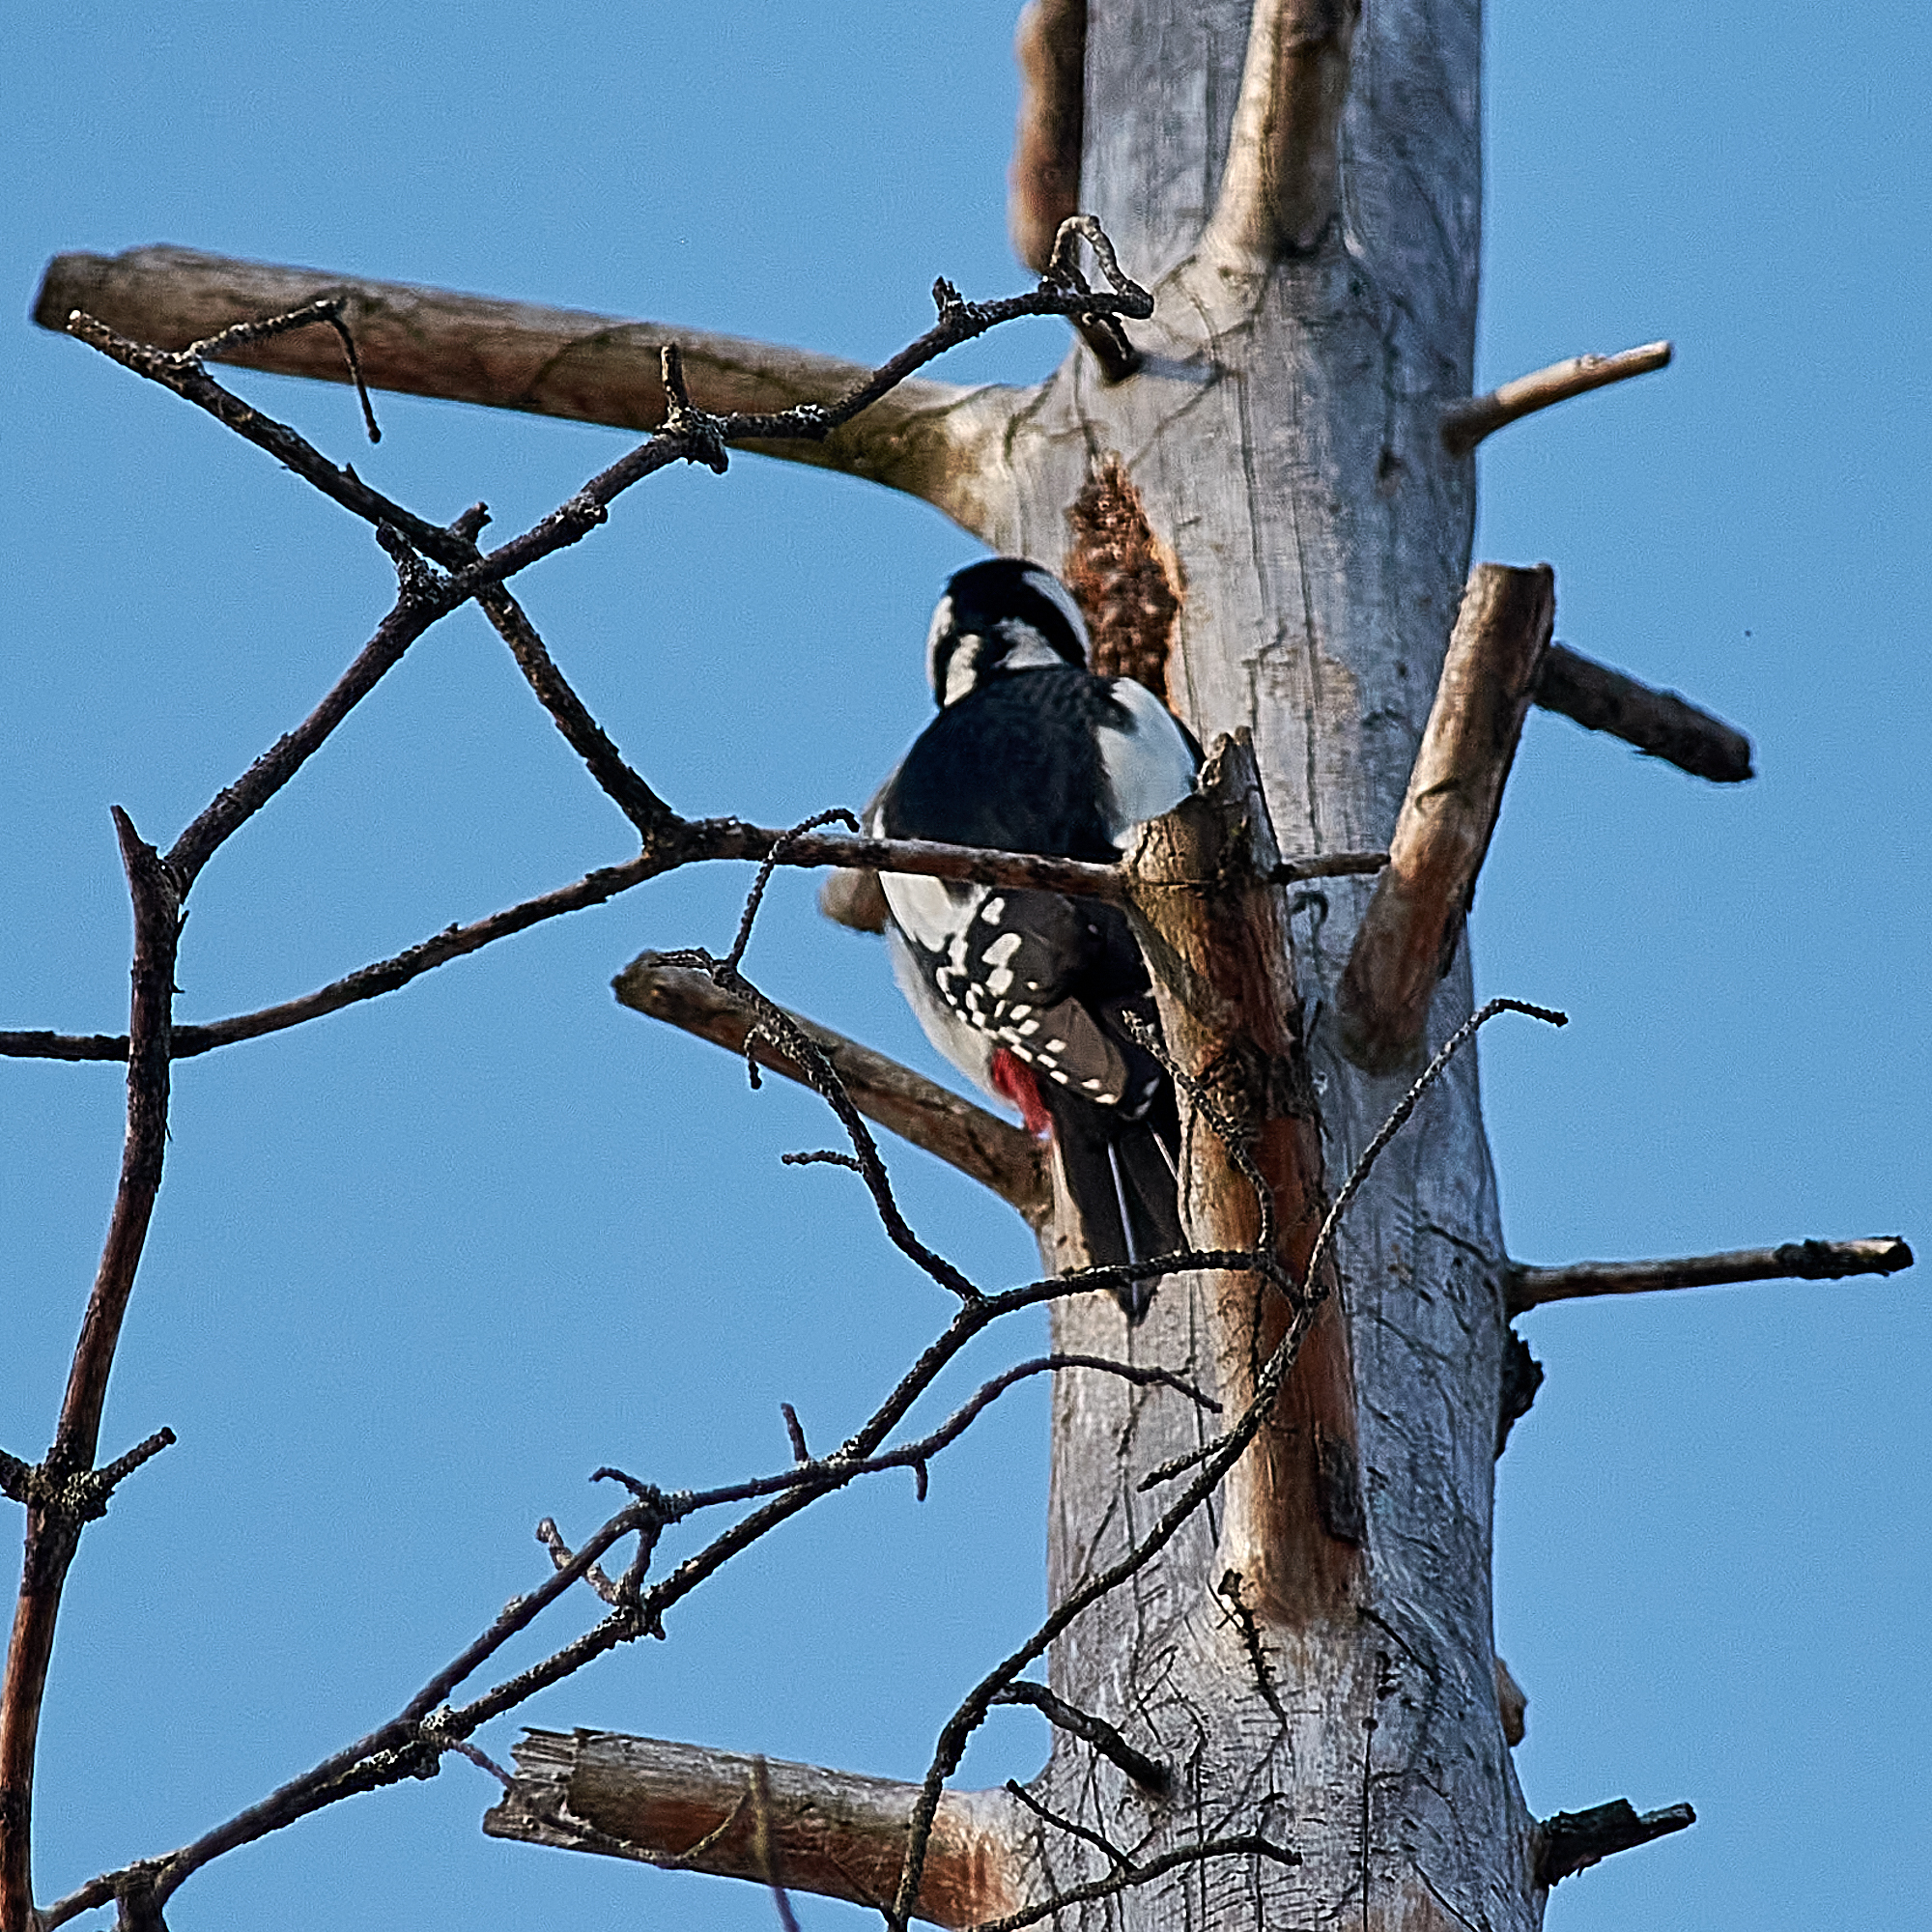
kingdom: Animalia
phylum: Chordata
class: Aves
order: Piciformes
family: Picidae
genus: Dendrocopos
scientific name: Dendrocopos major
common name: Great spotted woodpecker
